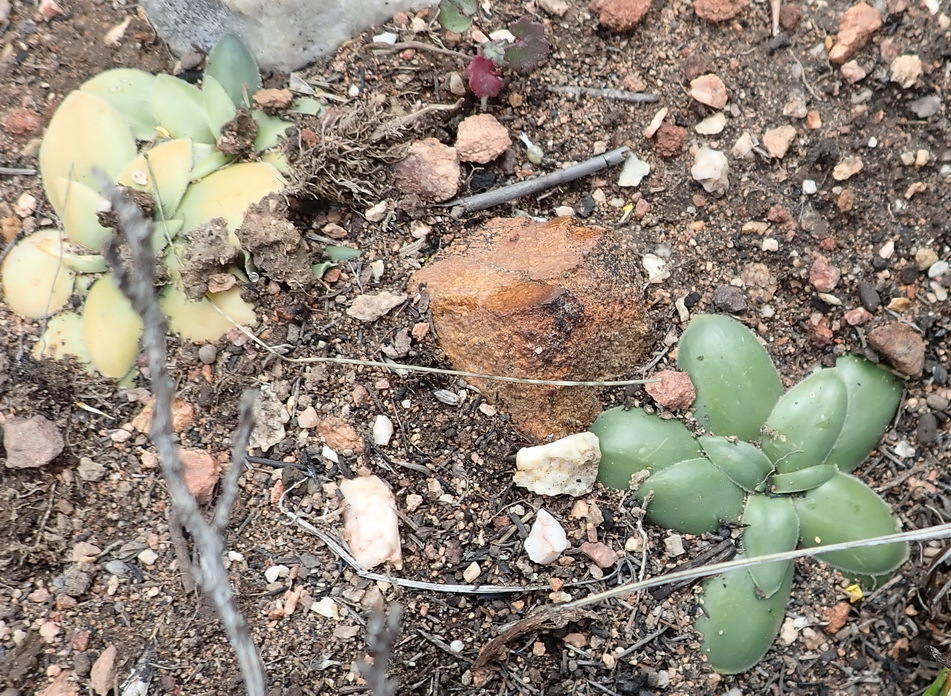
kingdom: Plantae
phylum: Tracheophyta
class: Liliopsida
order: Asparagales
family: Asparagaceae
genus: Drimia
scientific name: Drimia ciliata
